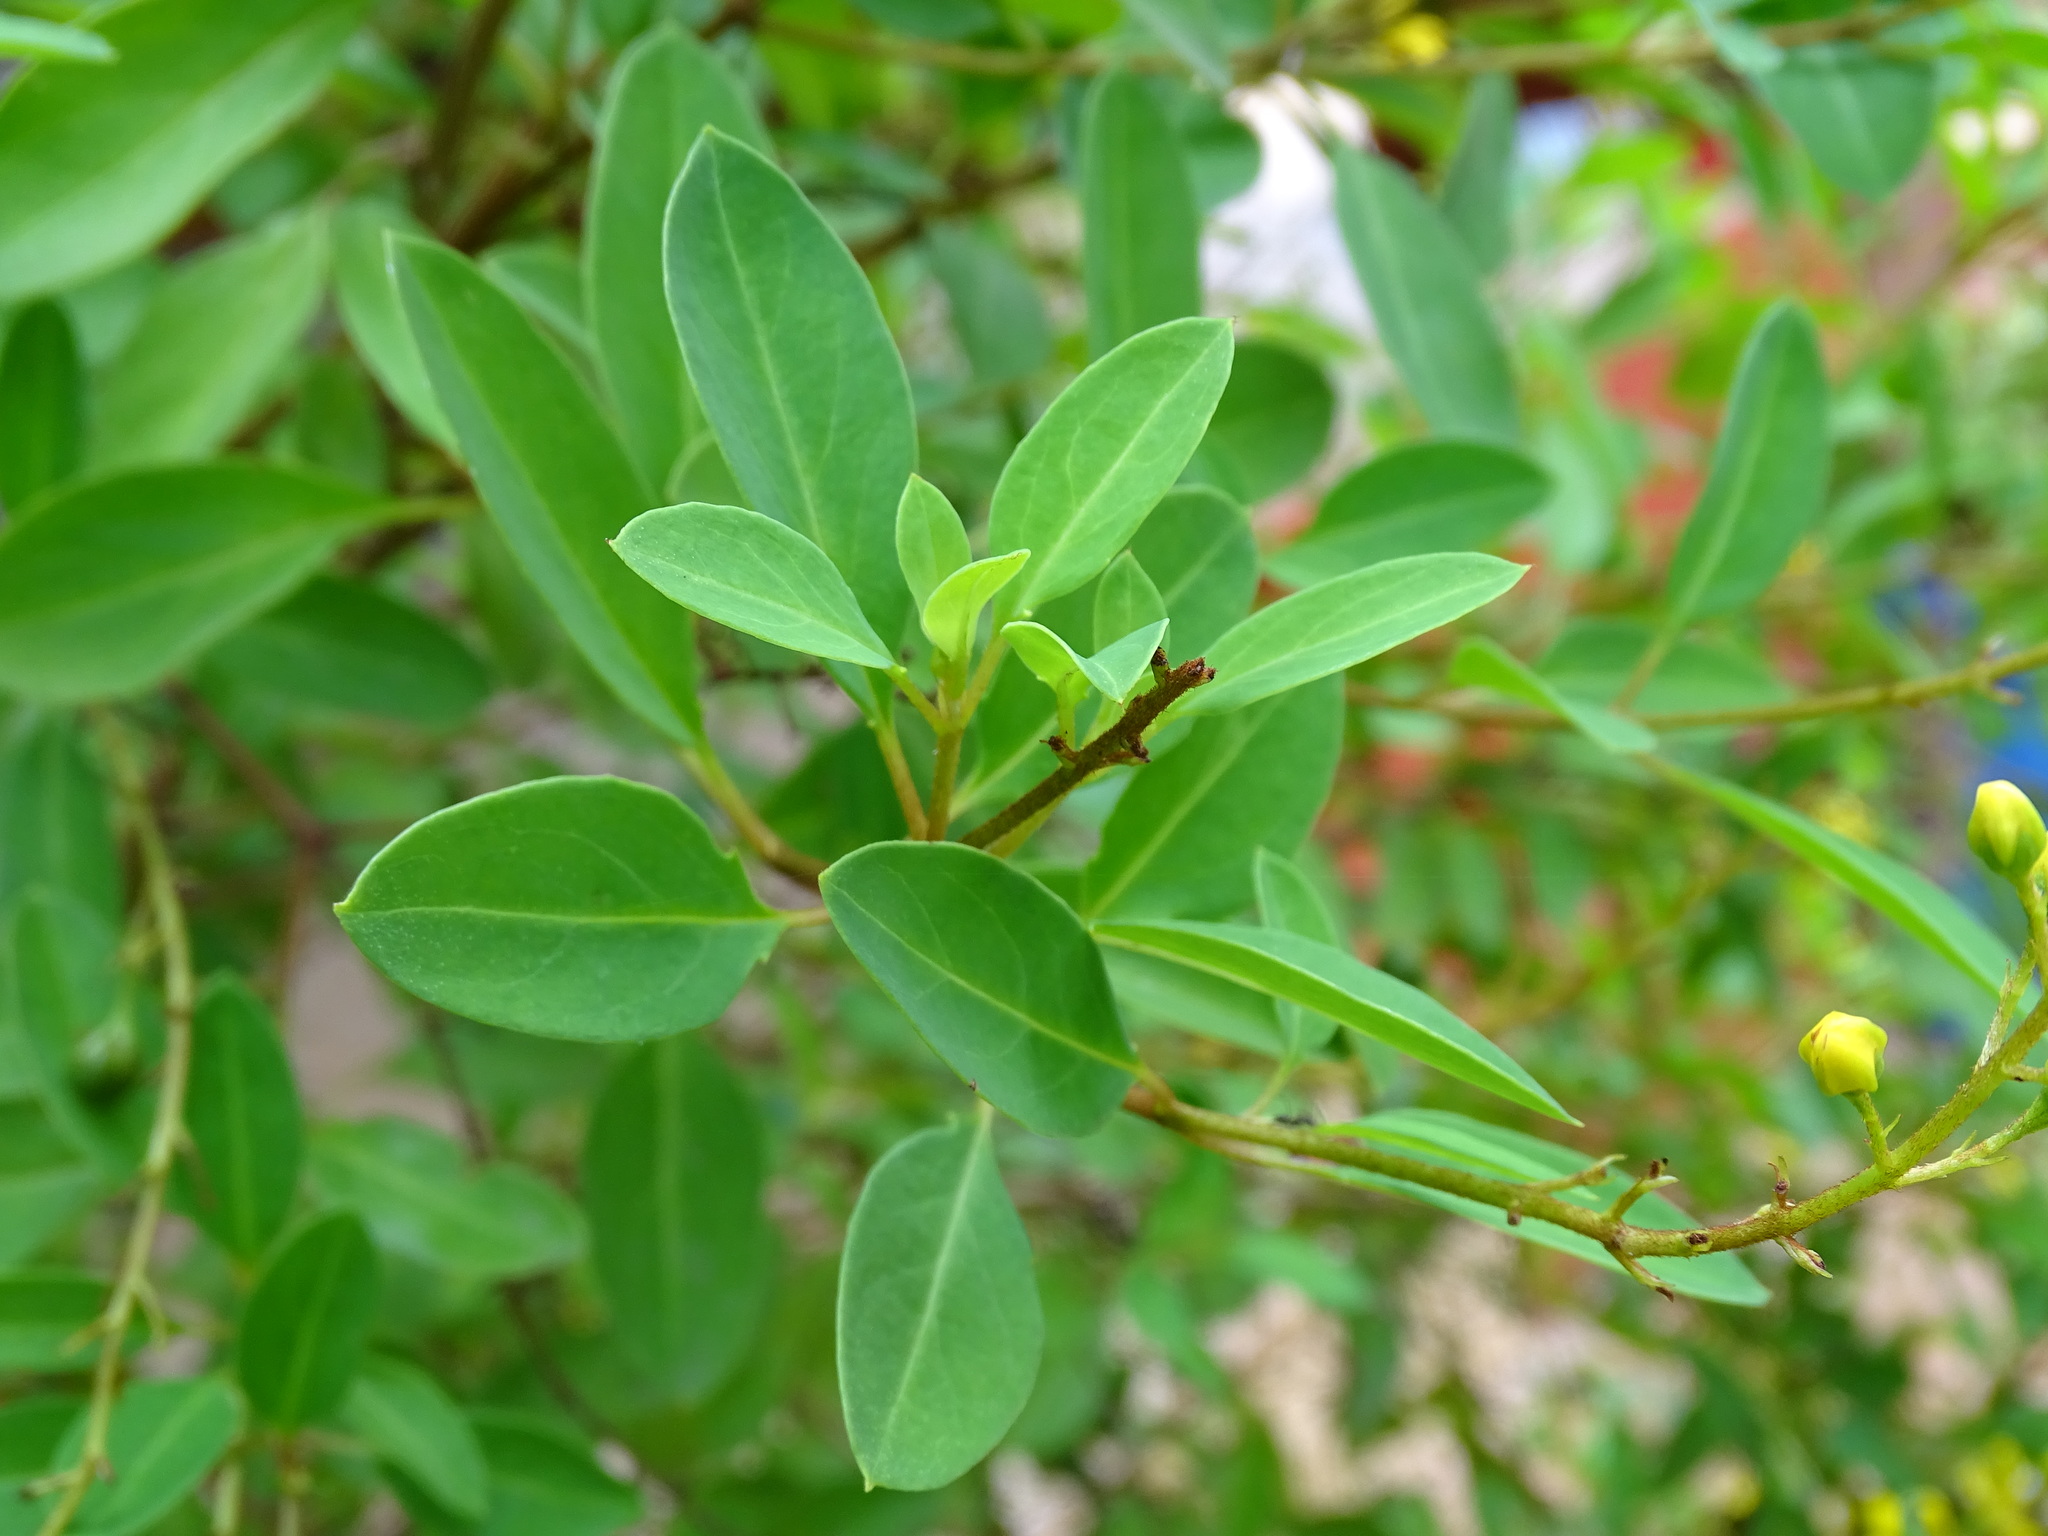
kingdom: Plantae
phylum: Tracheophyta
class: Magnoliopsida
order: Malpighiales
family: Malpighiaceae
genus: Galphimia
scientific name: Galphimia paniculata
